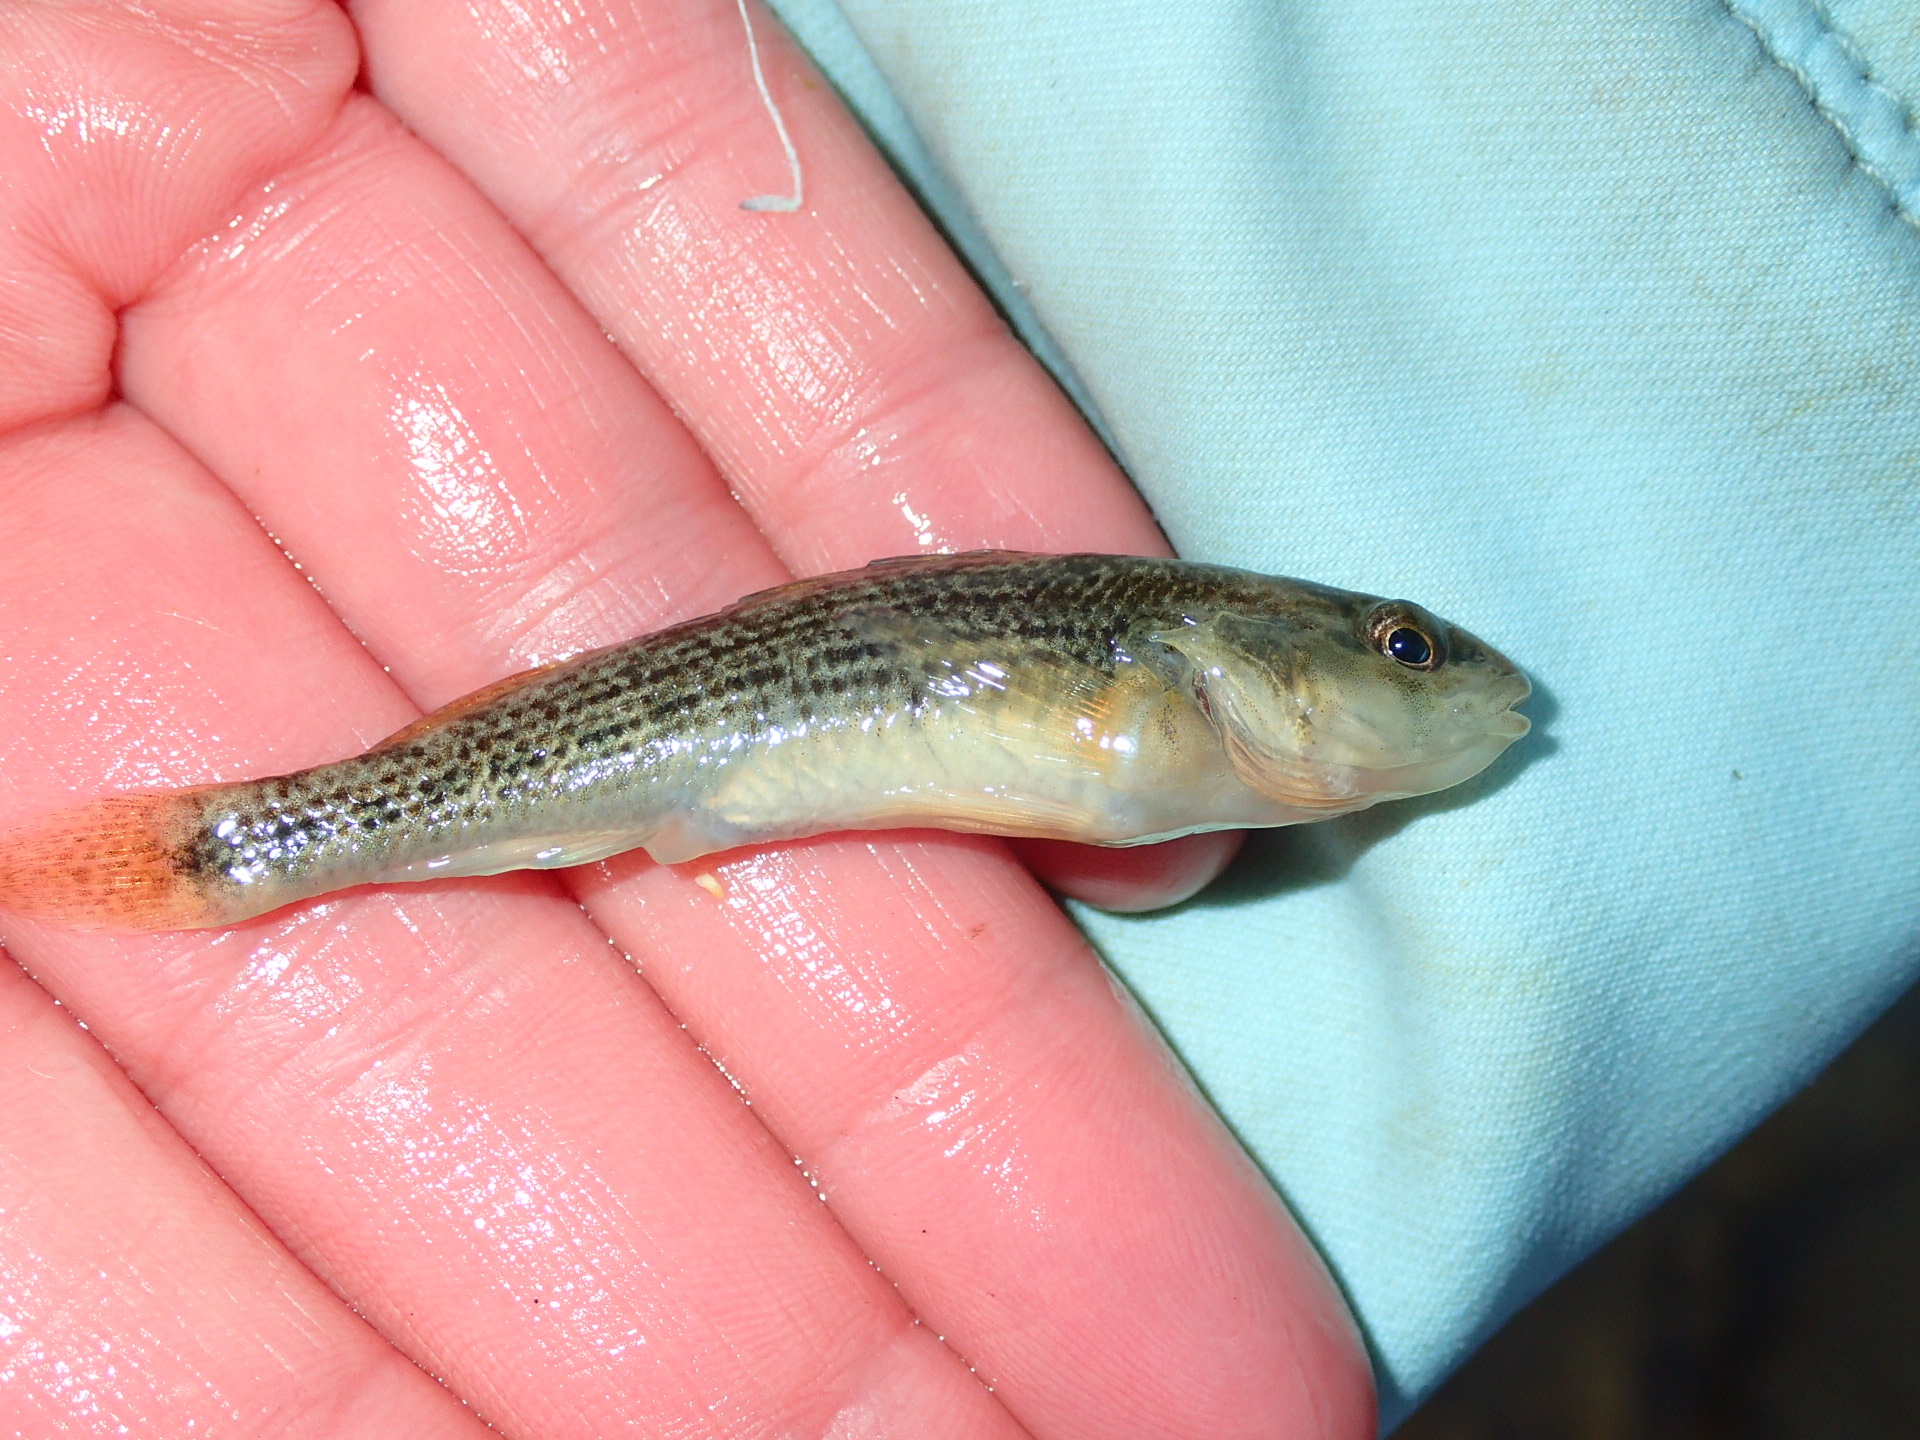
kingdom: Animalia
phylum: Chordata
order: Perciformes
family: Percidae
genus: Etheostoma
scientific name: Etheostoma spectabile
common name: Orangethroat darter
